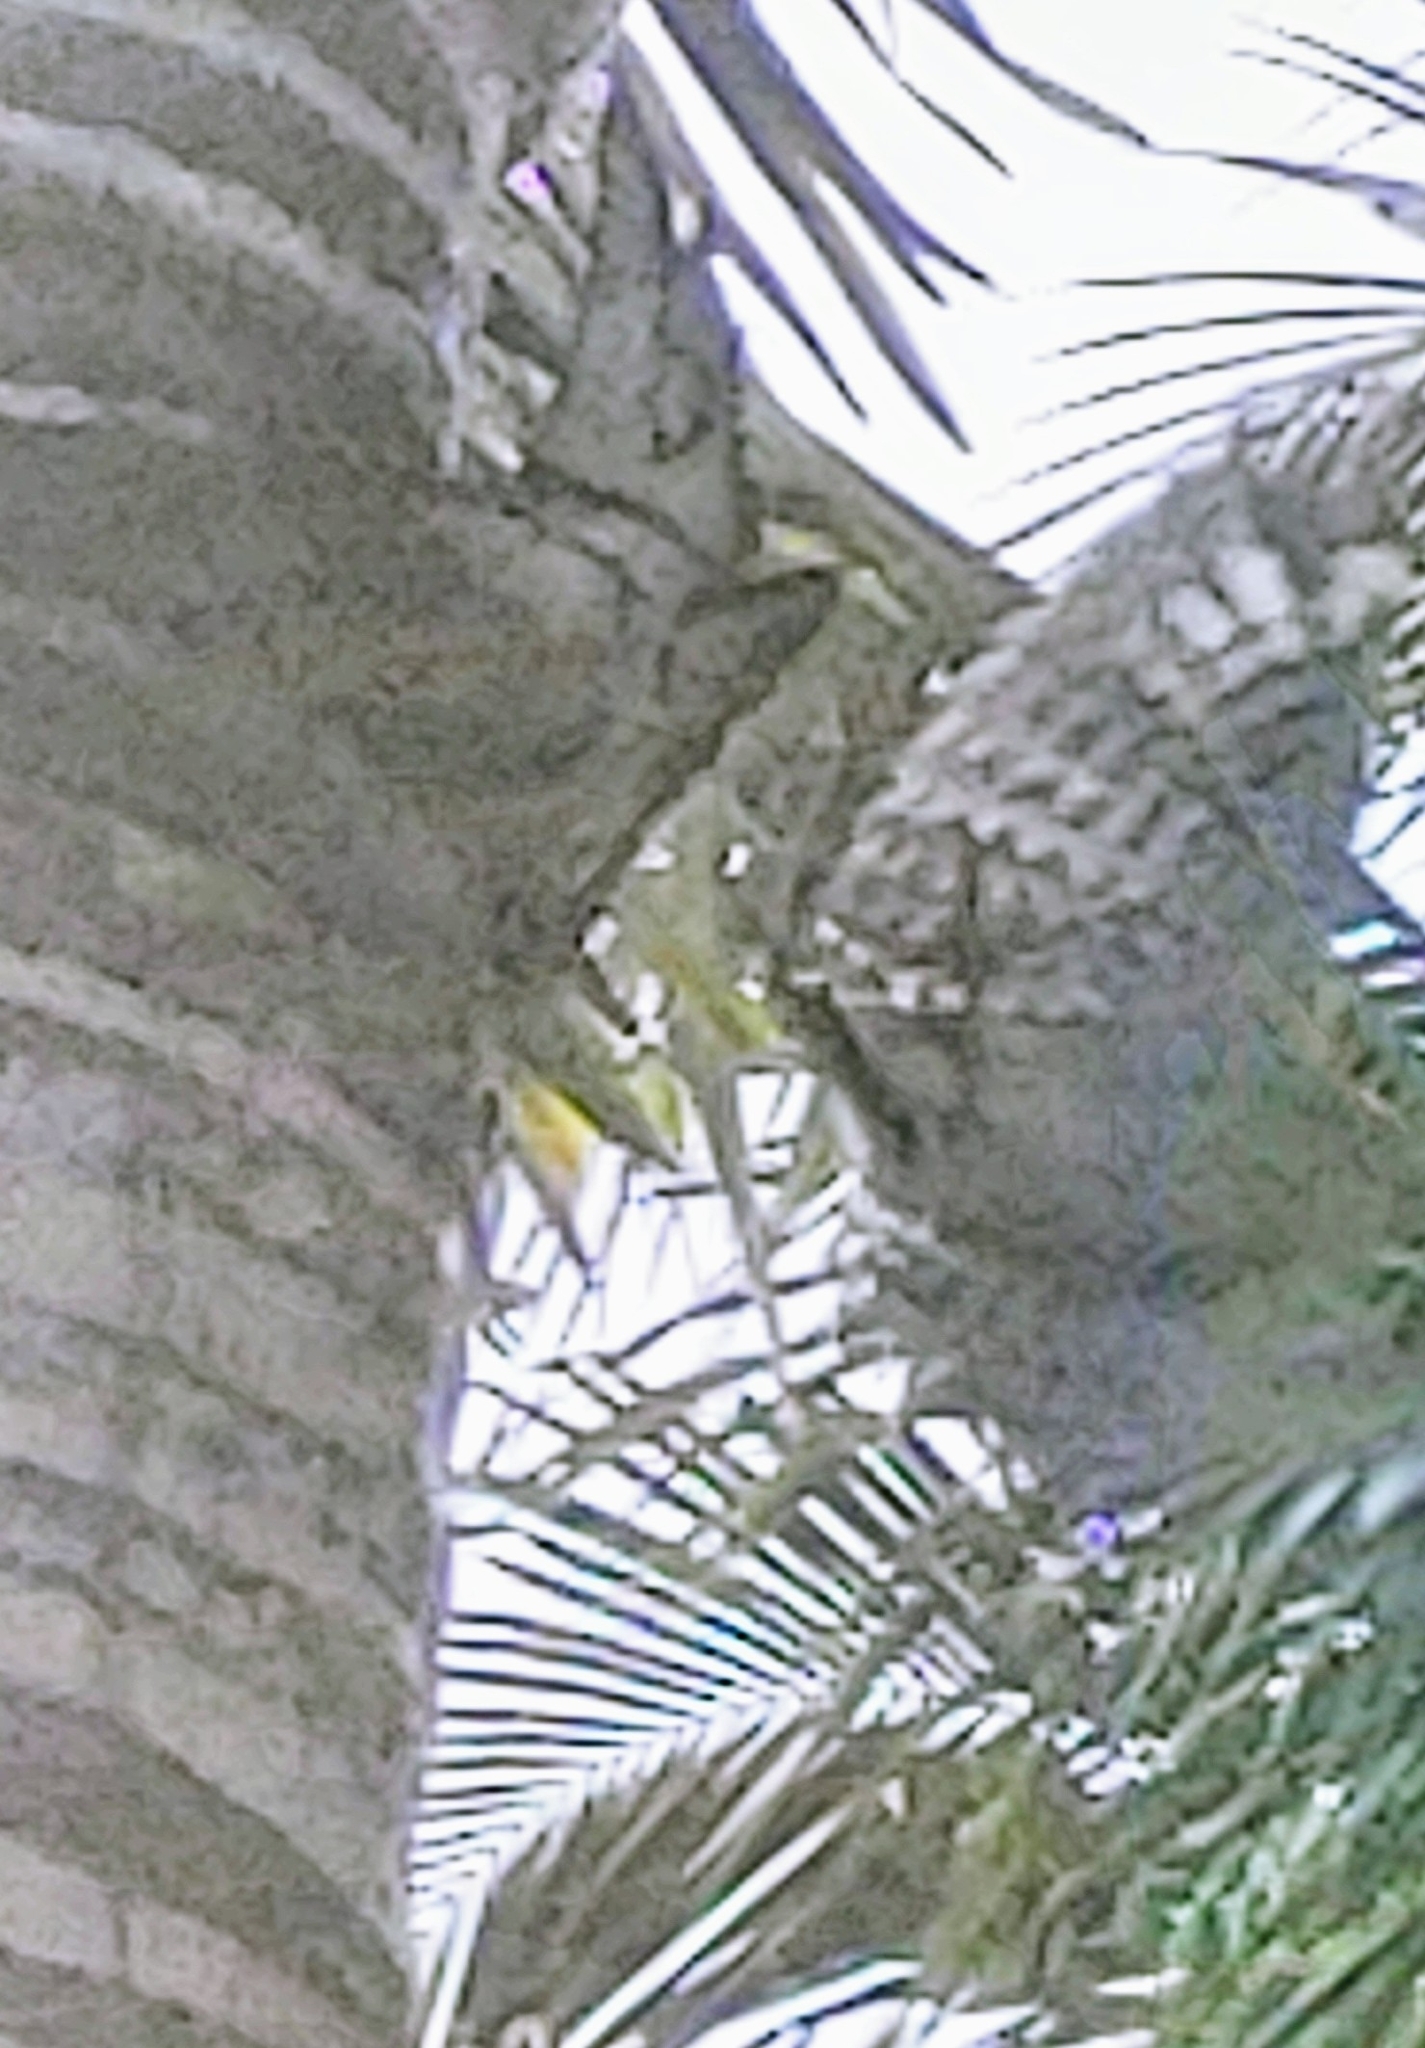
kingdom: Animalia
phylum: Chordata
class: Aves
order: Piciformes
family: Picidae
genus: Melanerpes
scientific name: Melanerpes carolinus
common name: Red-bellied woodpecker
